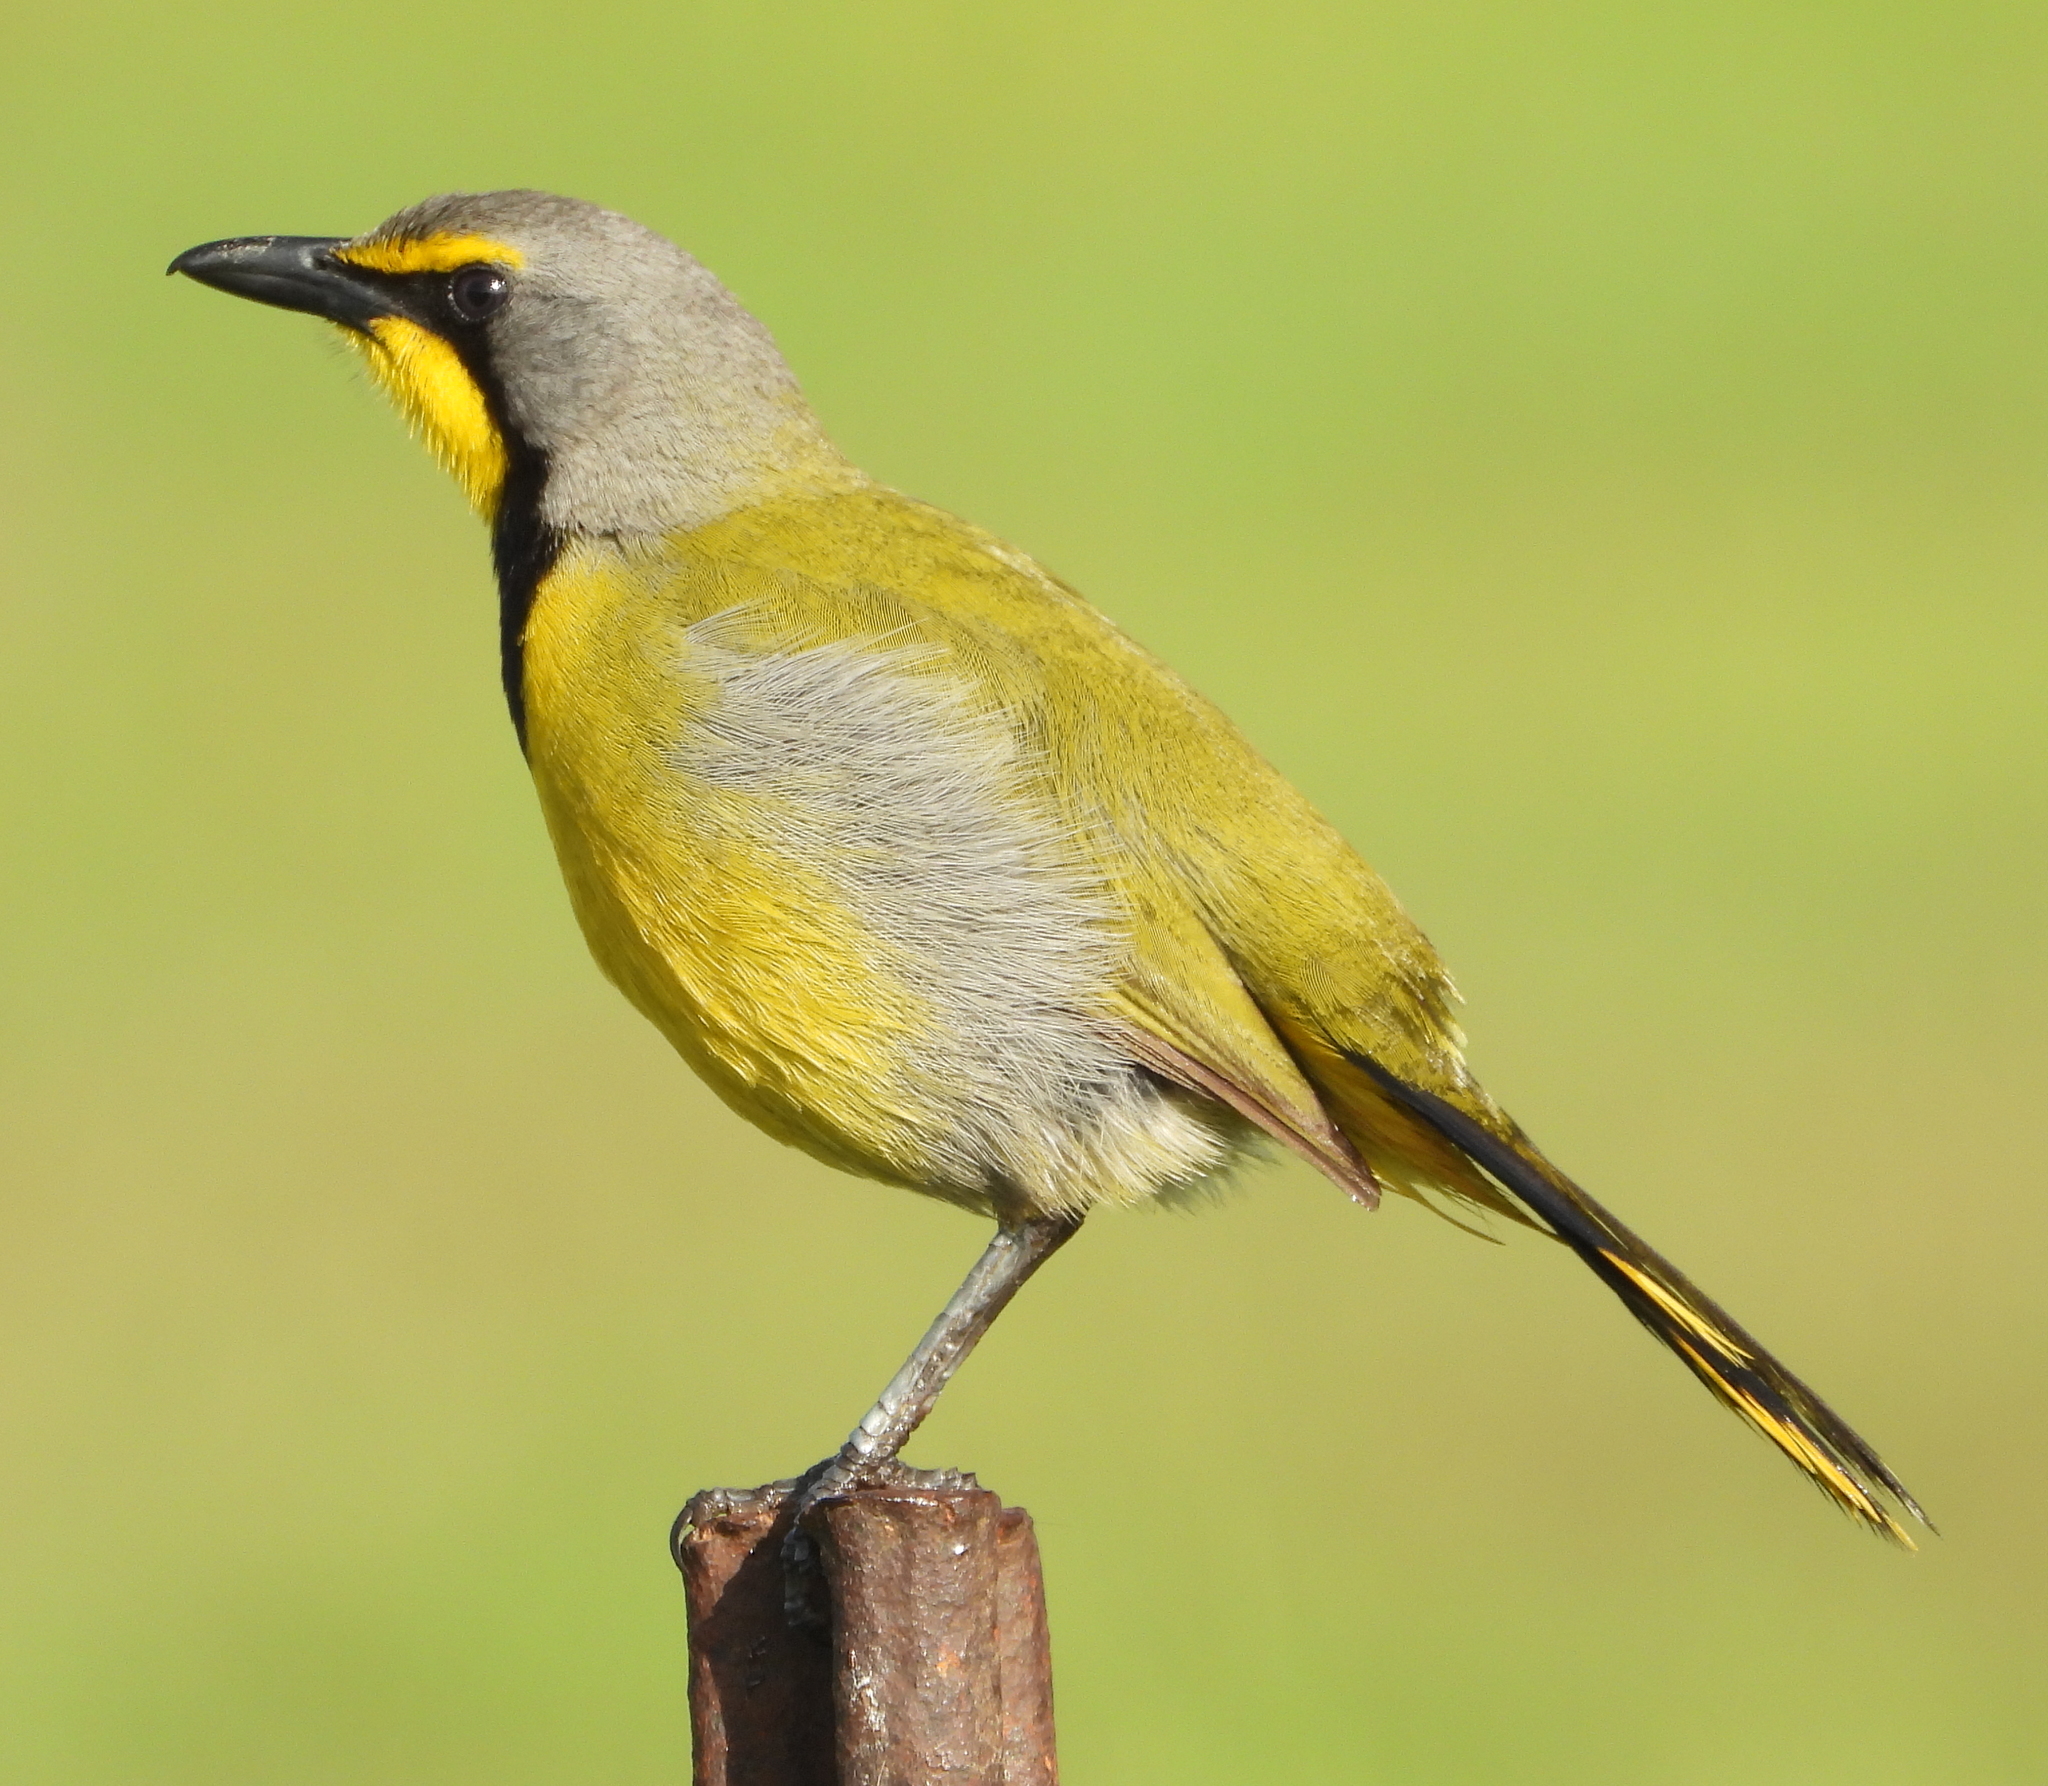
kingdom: Animalia
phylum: Chordata
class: Aves
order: Passeriformes
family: Malaconotidae
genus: Telophorus
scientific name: Telophorus zeylonus
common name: Bokmakierie
